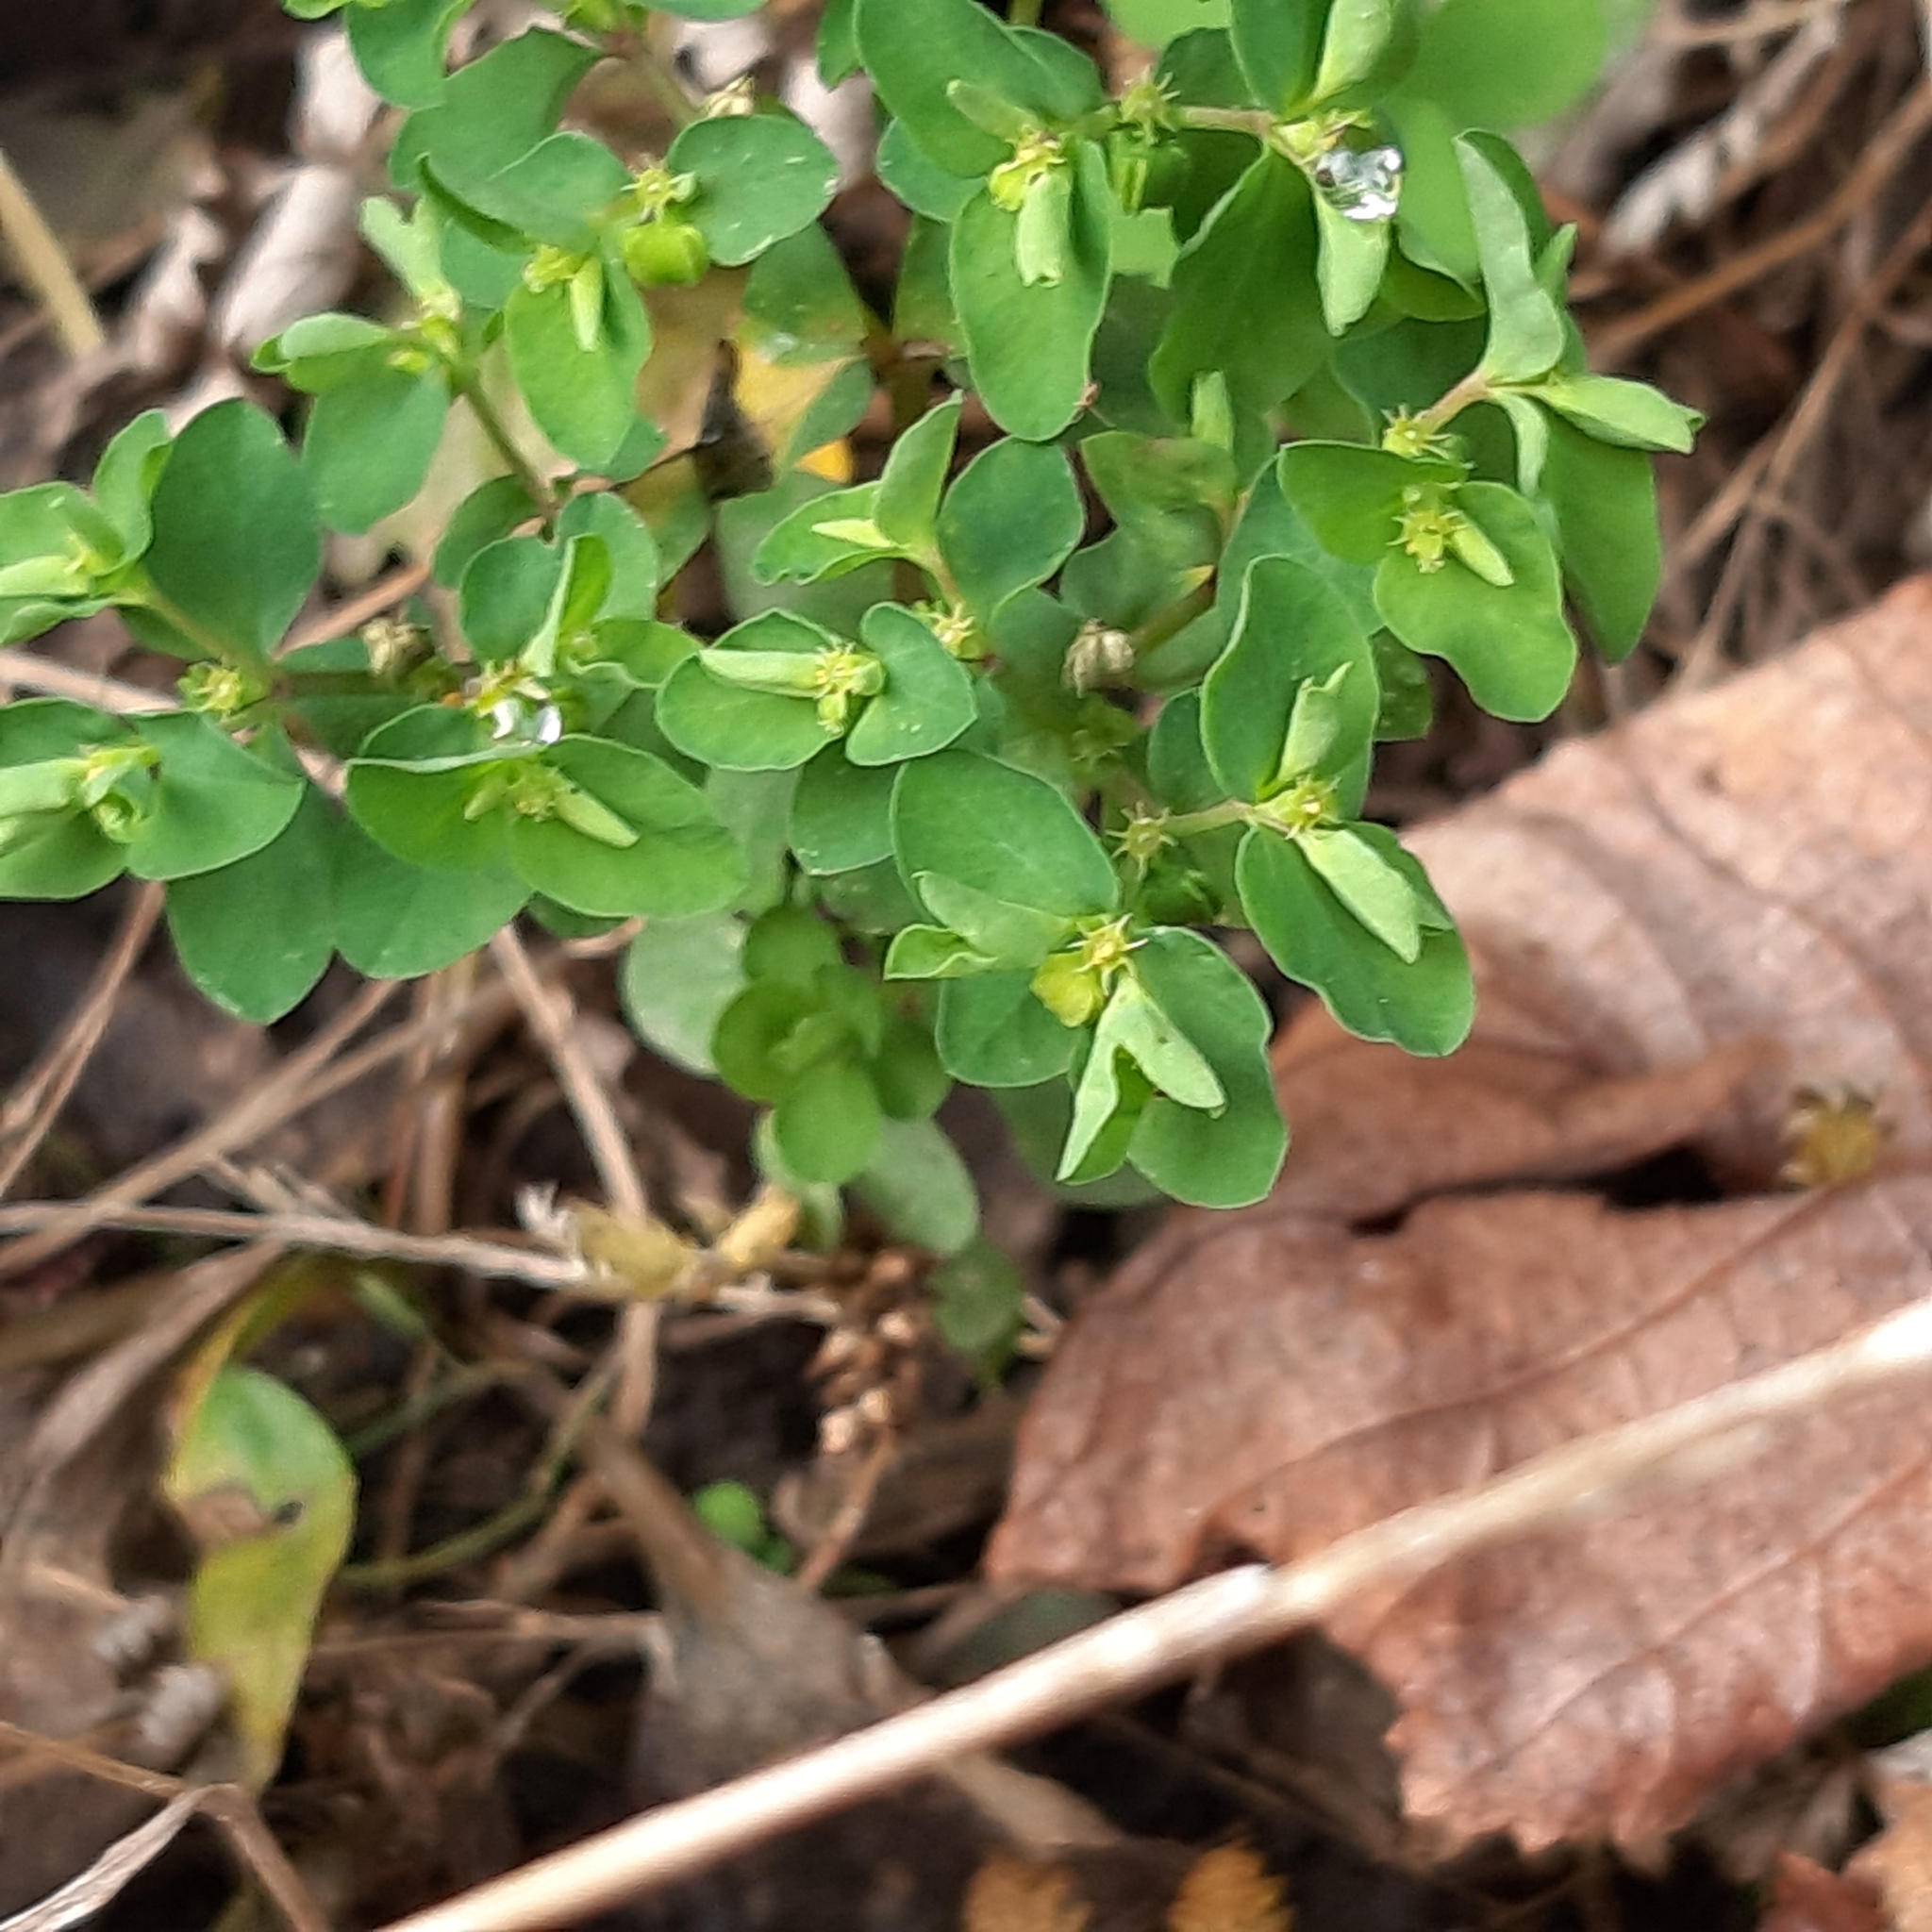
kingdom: Plantae
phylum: Tracheophyta
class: Magnoliopsida
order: Malpighiales
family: Euphorbiaceae
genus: Euphorbia
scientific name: Euphorbia peplus
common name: Petty spurge
